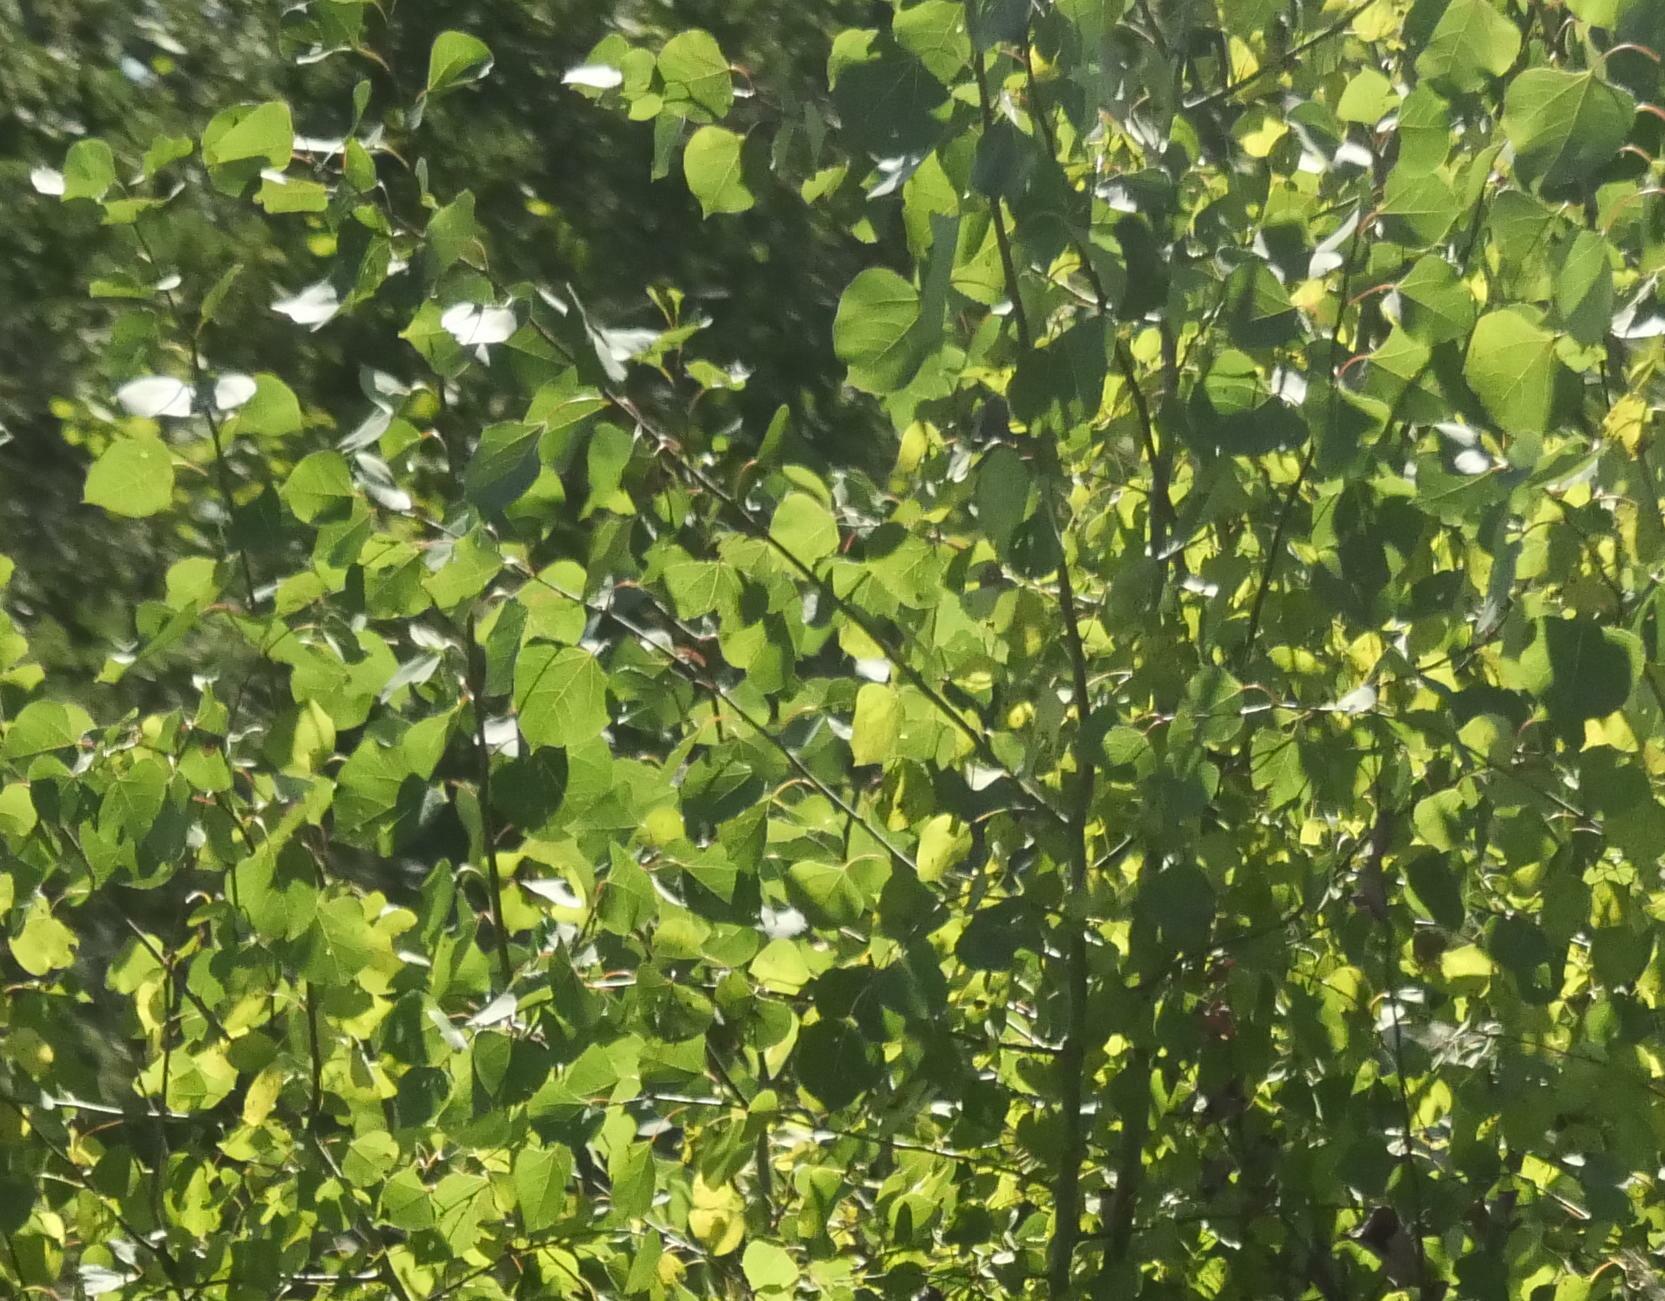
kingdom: Plantae
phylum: Tracheophyta
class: Magnoliopsida
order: Malpighiales
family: Salicaceae
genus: Populus
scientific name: Populus tremuloides
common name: Quaking aspen
